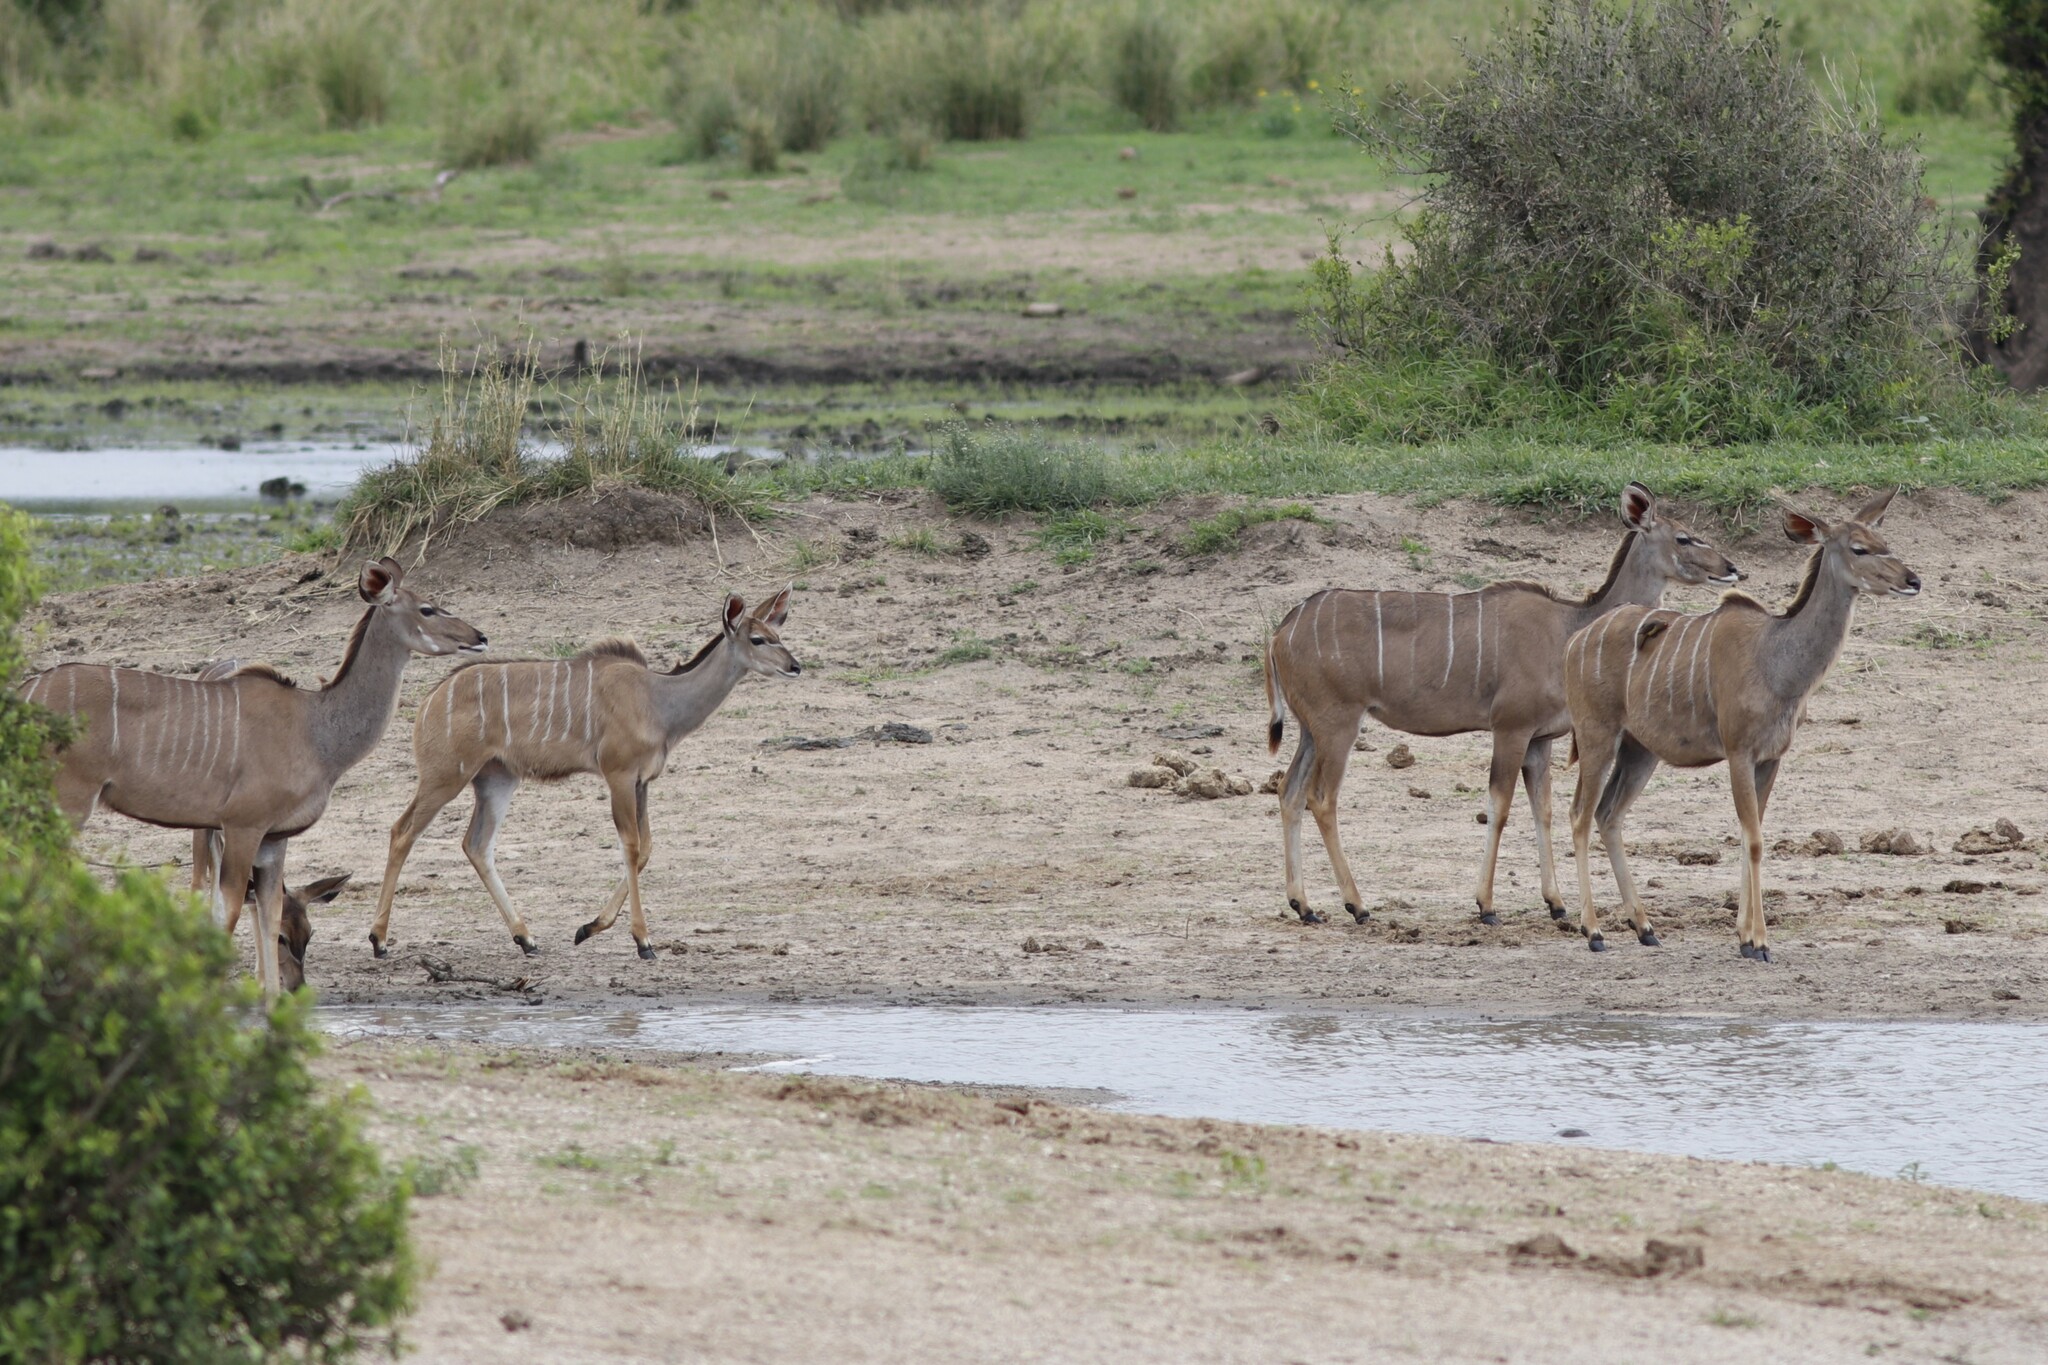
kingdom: Animalia
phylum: Chordata
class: Mammalia
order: Artiodactyla
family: Bovidae
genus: Tragelaphus
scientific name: Tragelaphus strepsiceros
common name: Greater kudu
